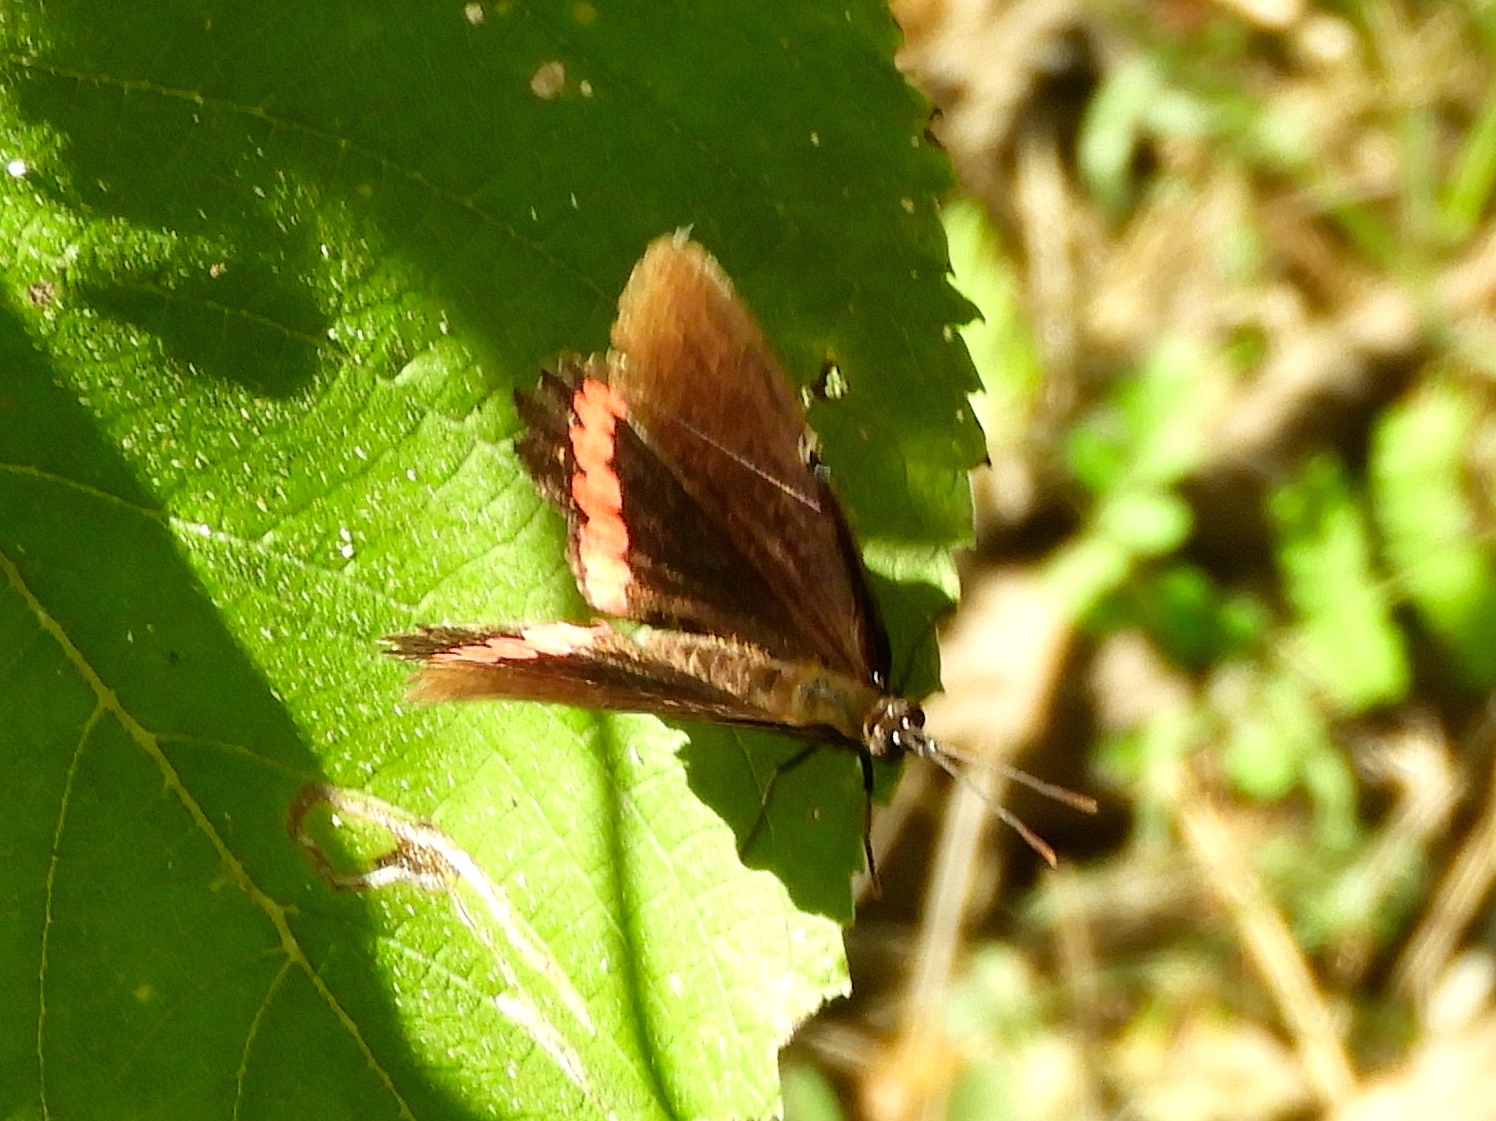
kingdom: Animalia
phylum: Arthropoda
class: Insecta
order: Lepidoptera
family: Nymphalidae
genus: Biblis
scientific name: Biblis aganisa
